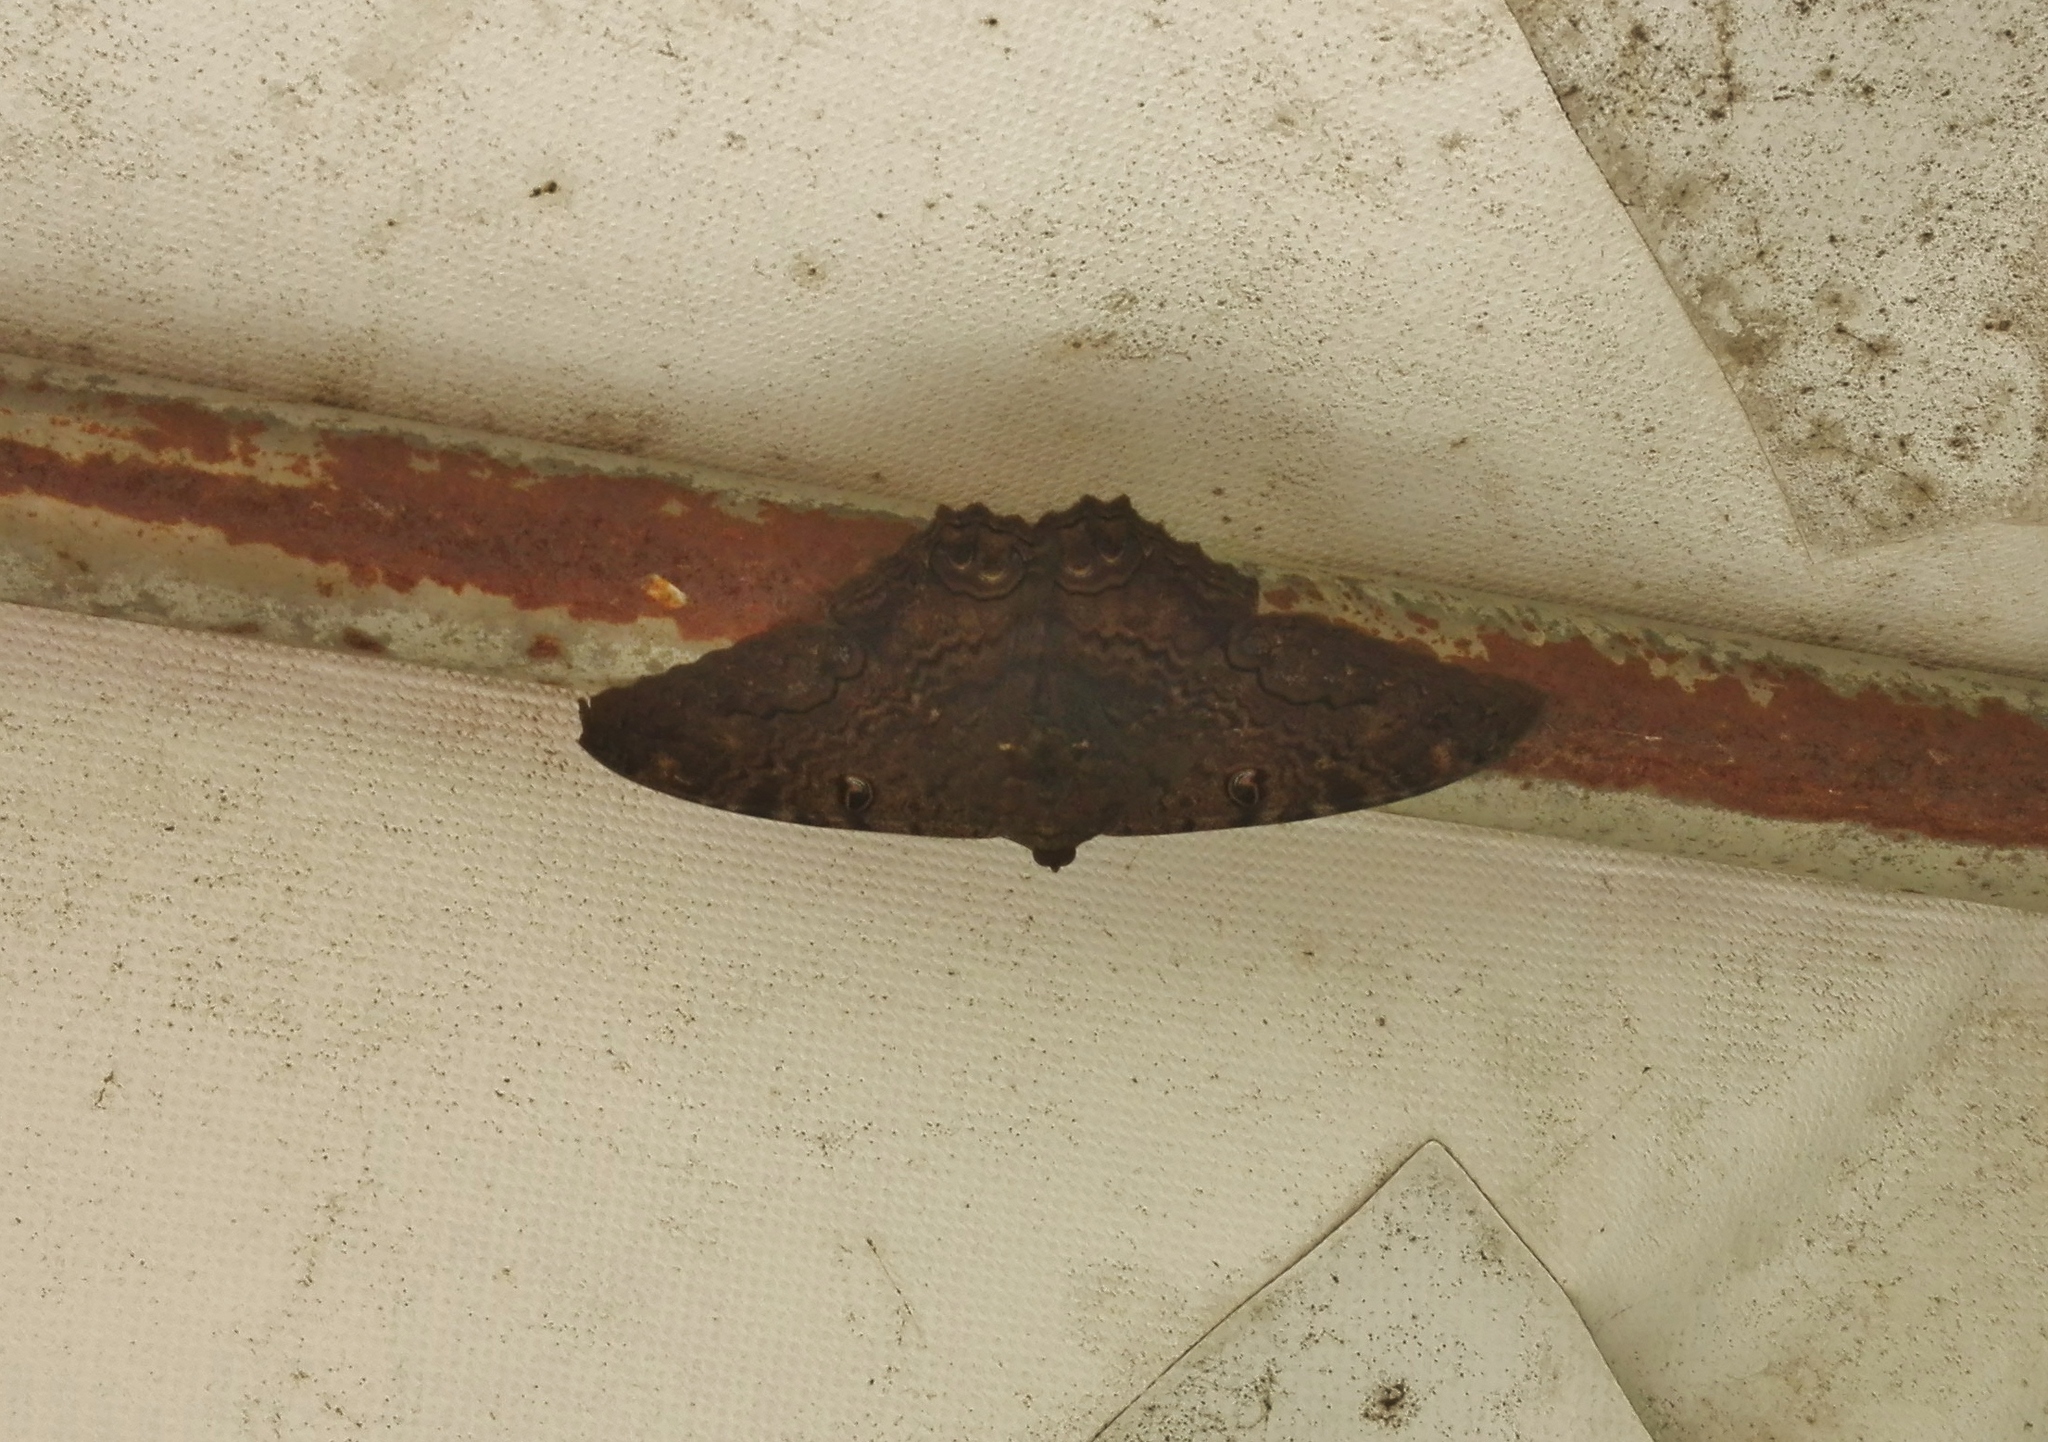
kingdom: Animalia
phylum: Arthropoda
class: Insecta
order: Lepidoptera
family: Erebidae
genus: Ascalapha
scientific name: Ascalapha odorata
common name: Black witch
